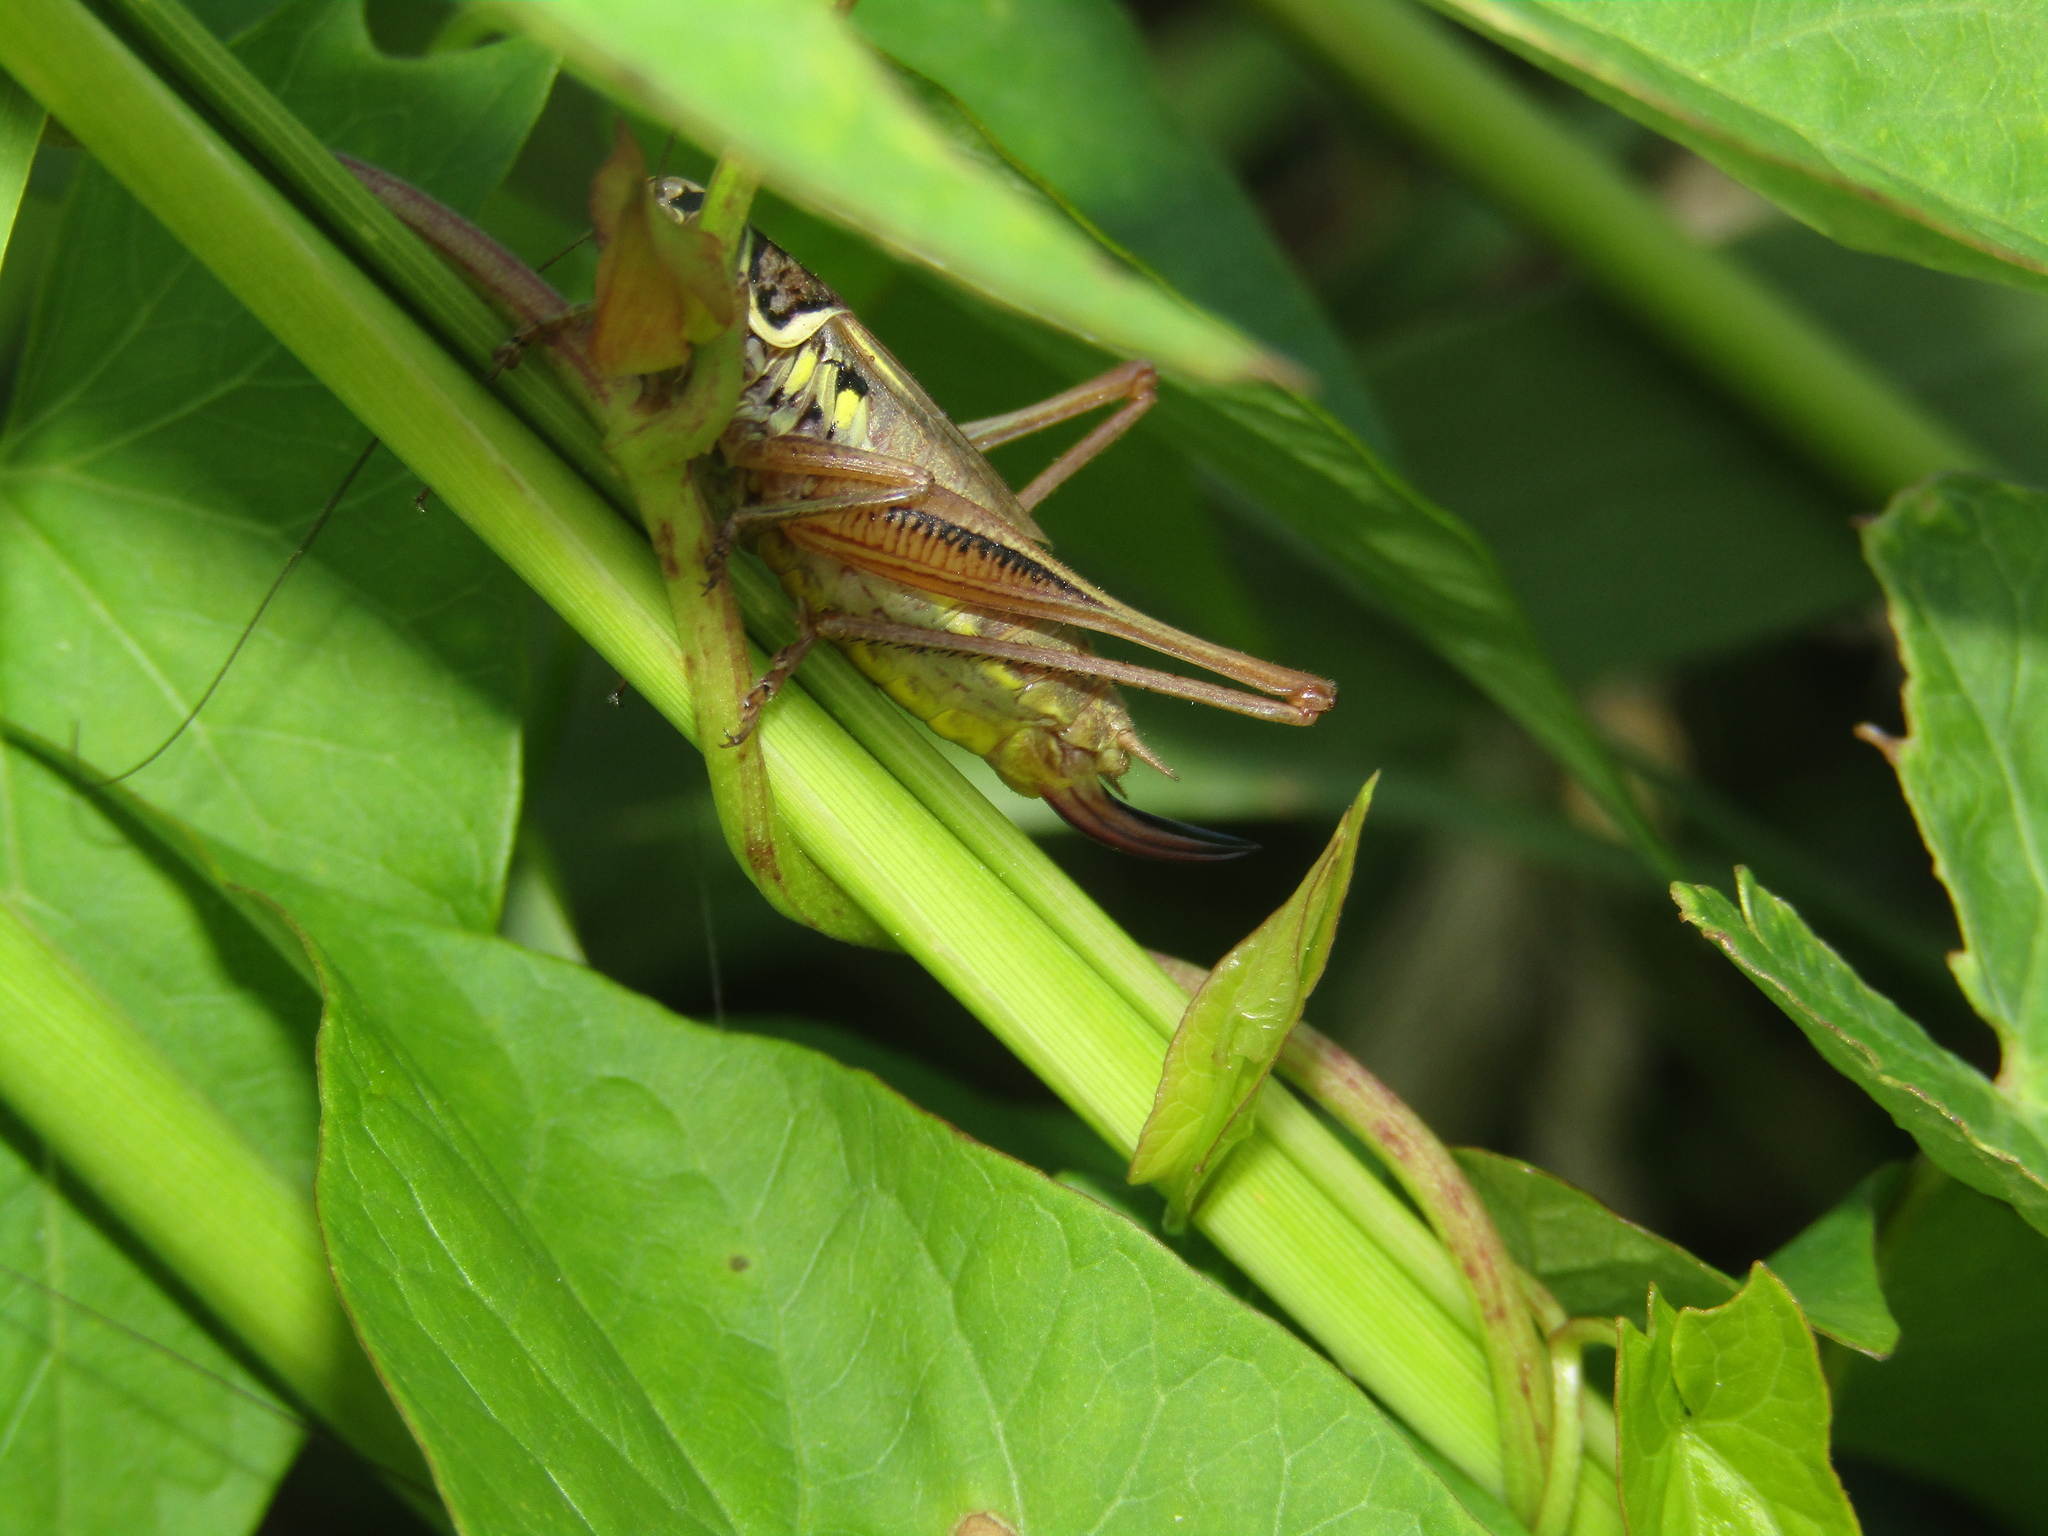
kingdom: Animalia
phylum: Arthropoda
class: Insecta
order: Orthoptera
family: Tettigoniidae
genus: Roeseliana
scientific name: Roeseliana roeselii
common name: Roesel's bush cricket
